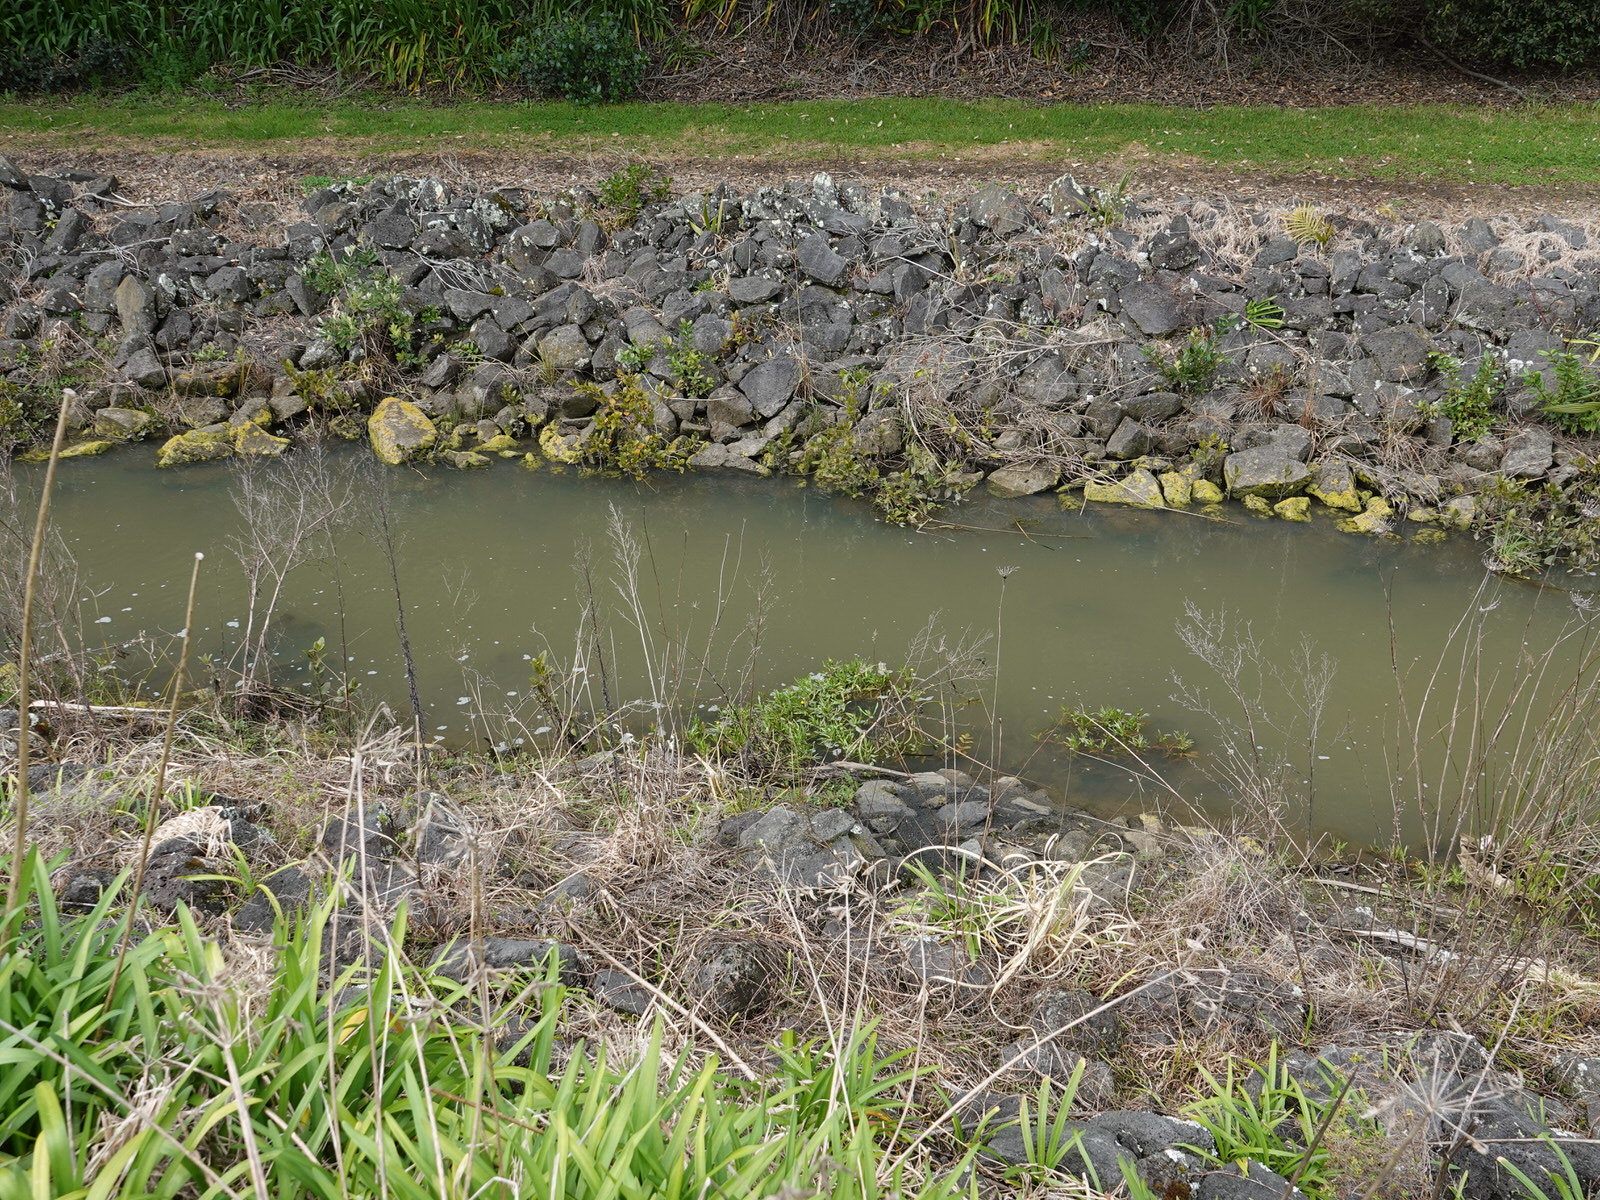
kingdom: Plantae
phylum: Tracheophyta
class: Magnoliopsida
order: Asterales
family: Asteraceae
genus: Cotula
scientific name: Cotula coronopifolia
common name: Buttonweed
